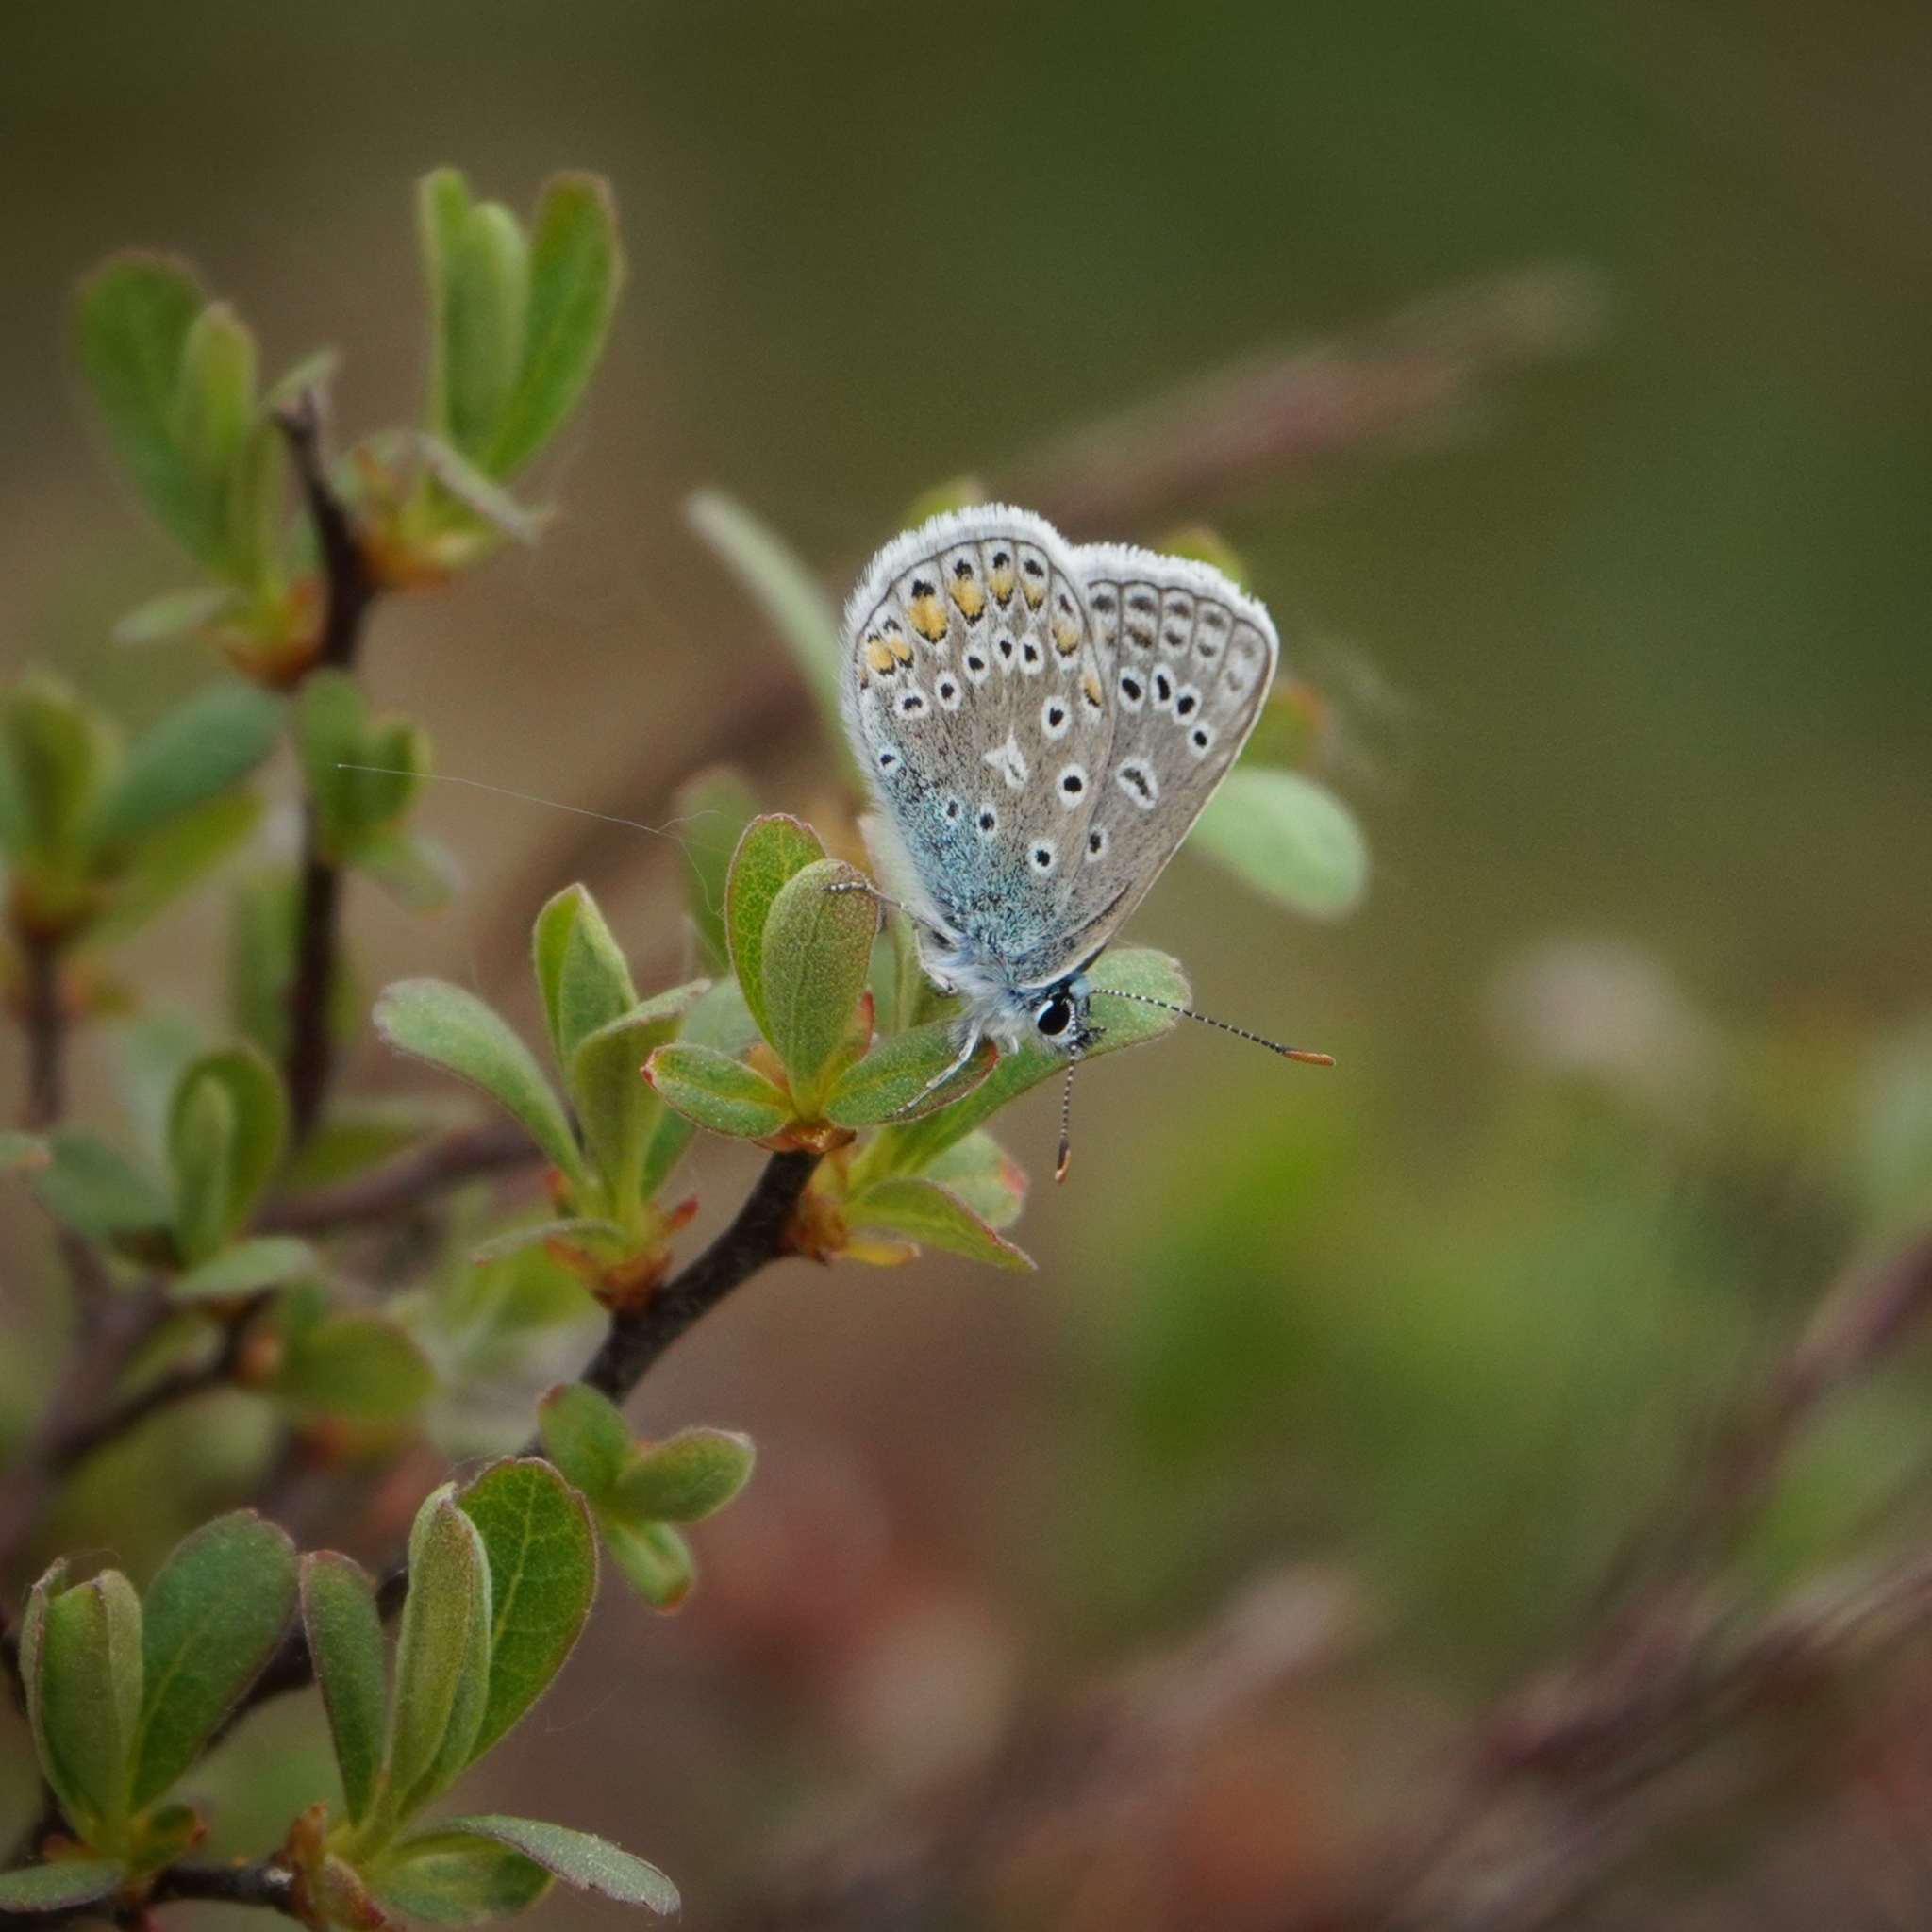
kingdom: Animalia
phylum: Arthropoda
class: Insecta
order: Lepidoptera
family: Lycaenidae
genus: Polyommatus
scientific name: Polyommatus icarus
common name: Common blue
